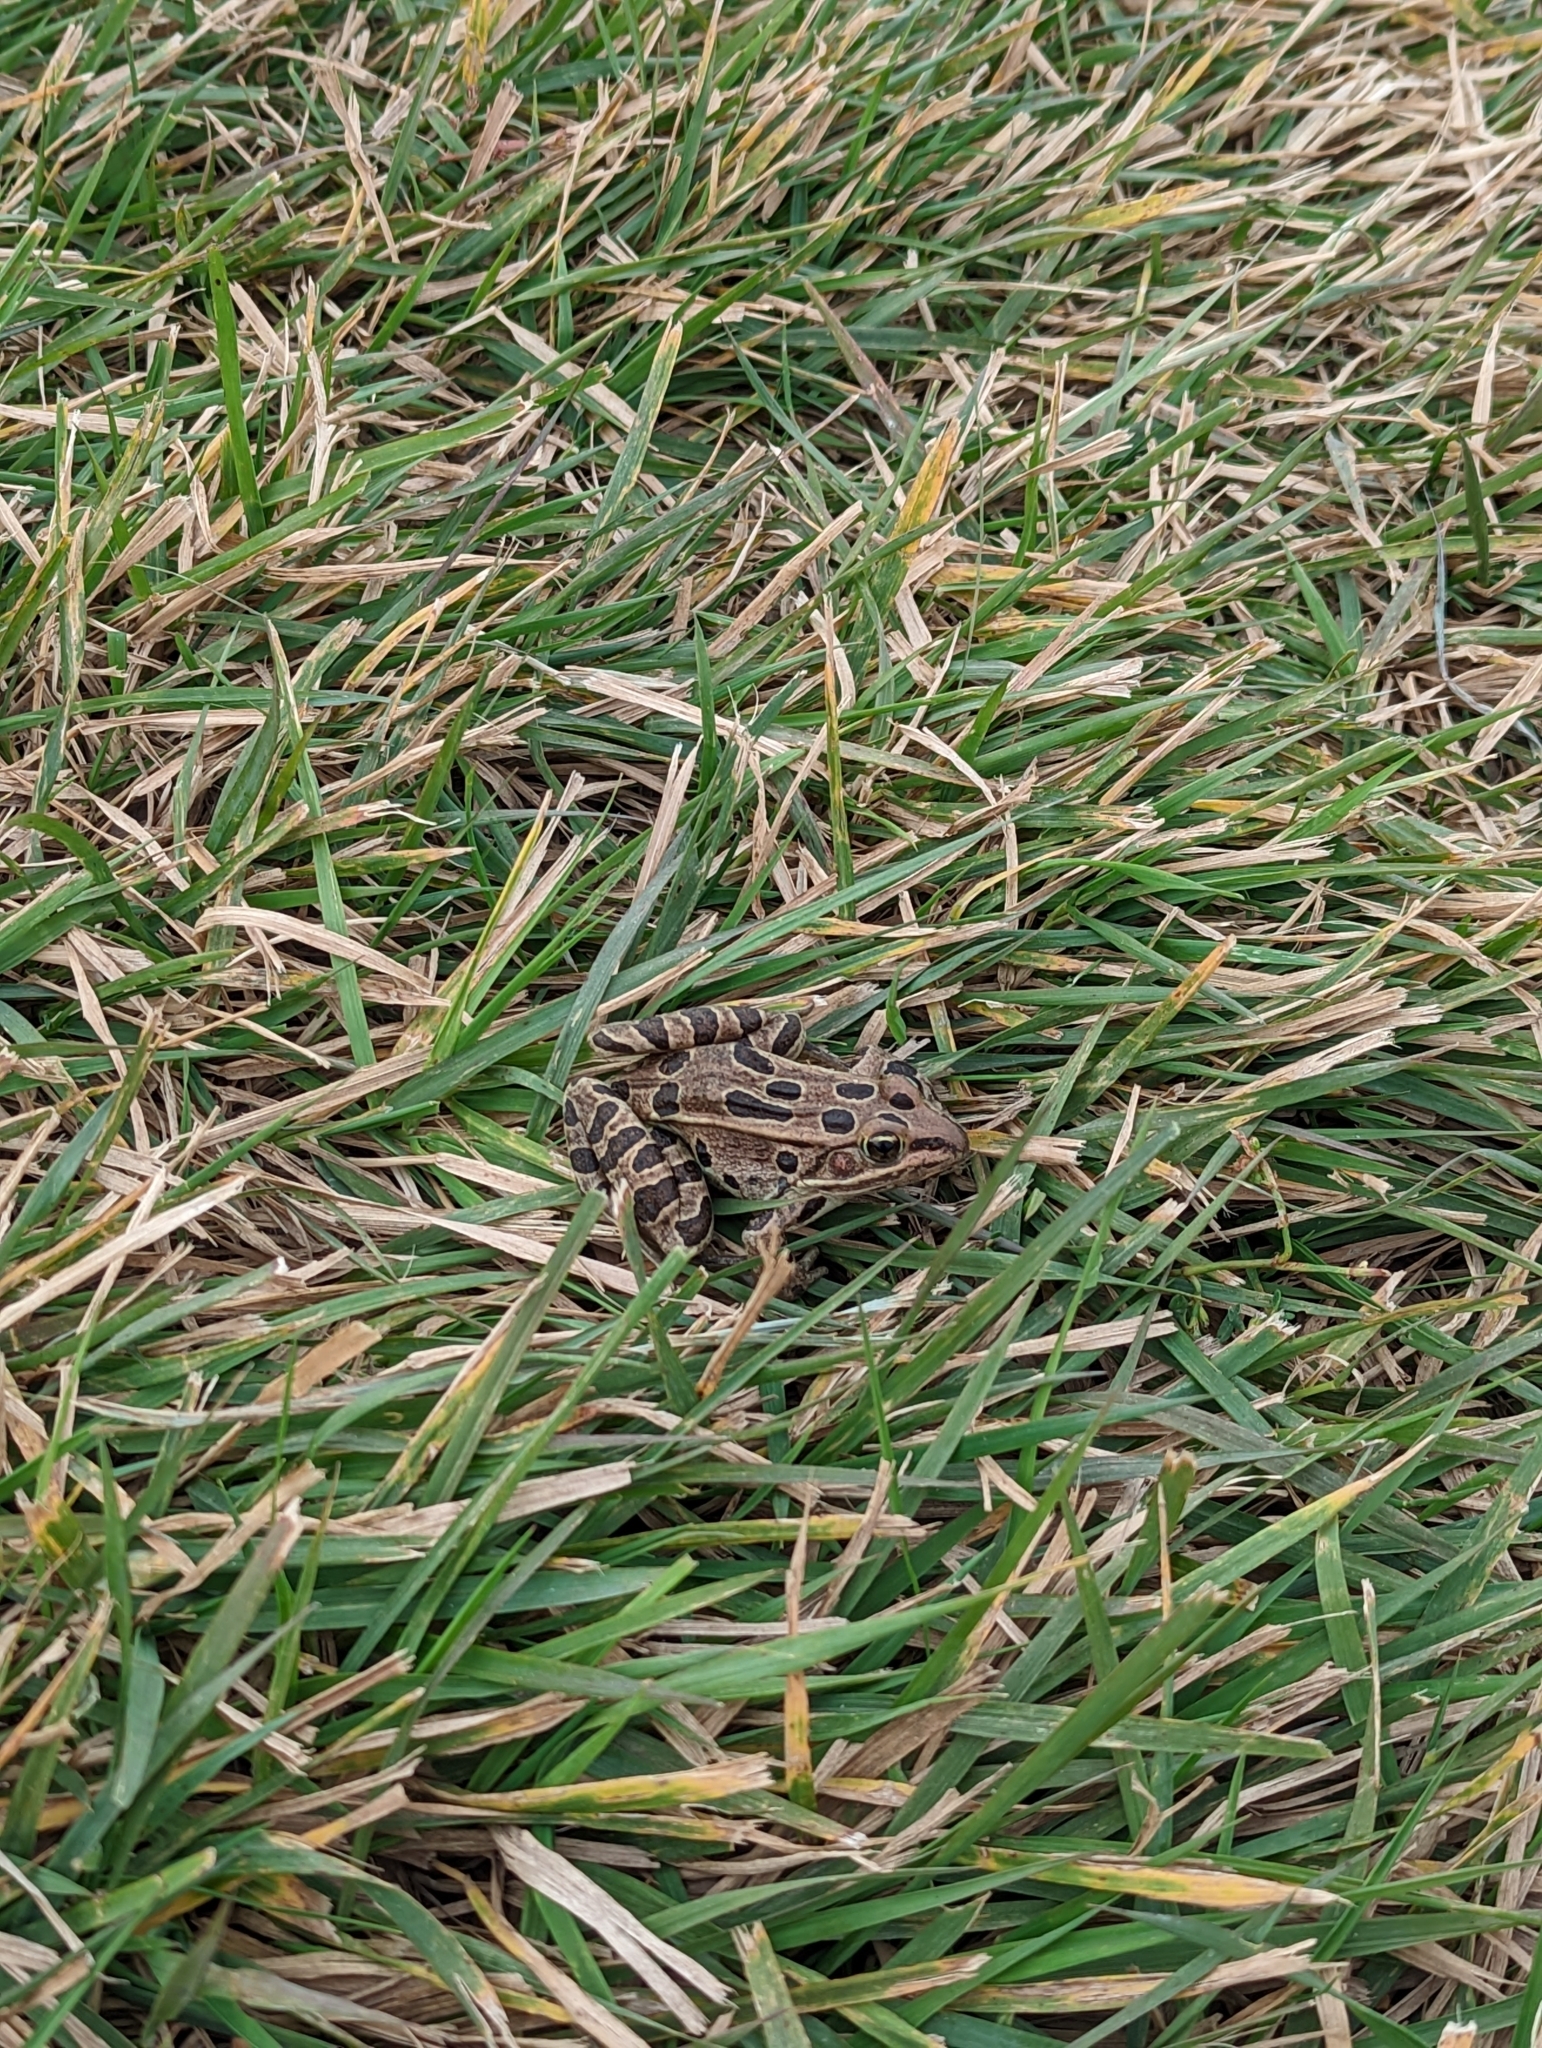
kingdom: Animalia
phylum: Chordata
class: Amphibia
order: Anura
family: Ranidae
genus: Lithobates
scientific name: Lithobates pipiens
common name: Northern leopard frog
